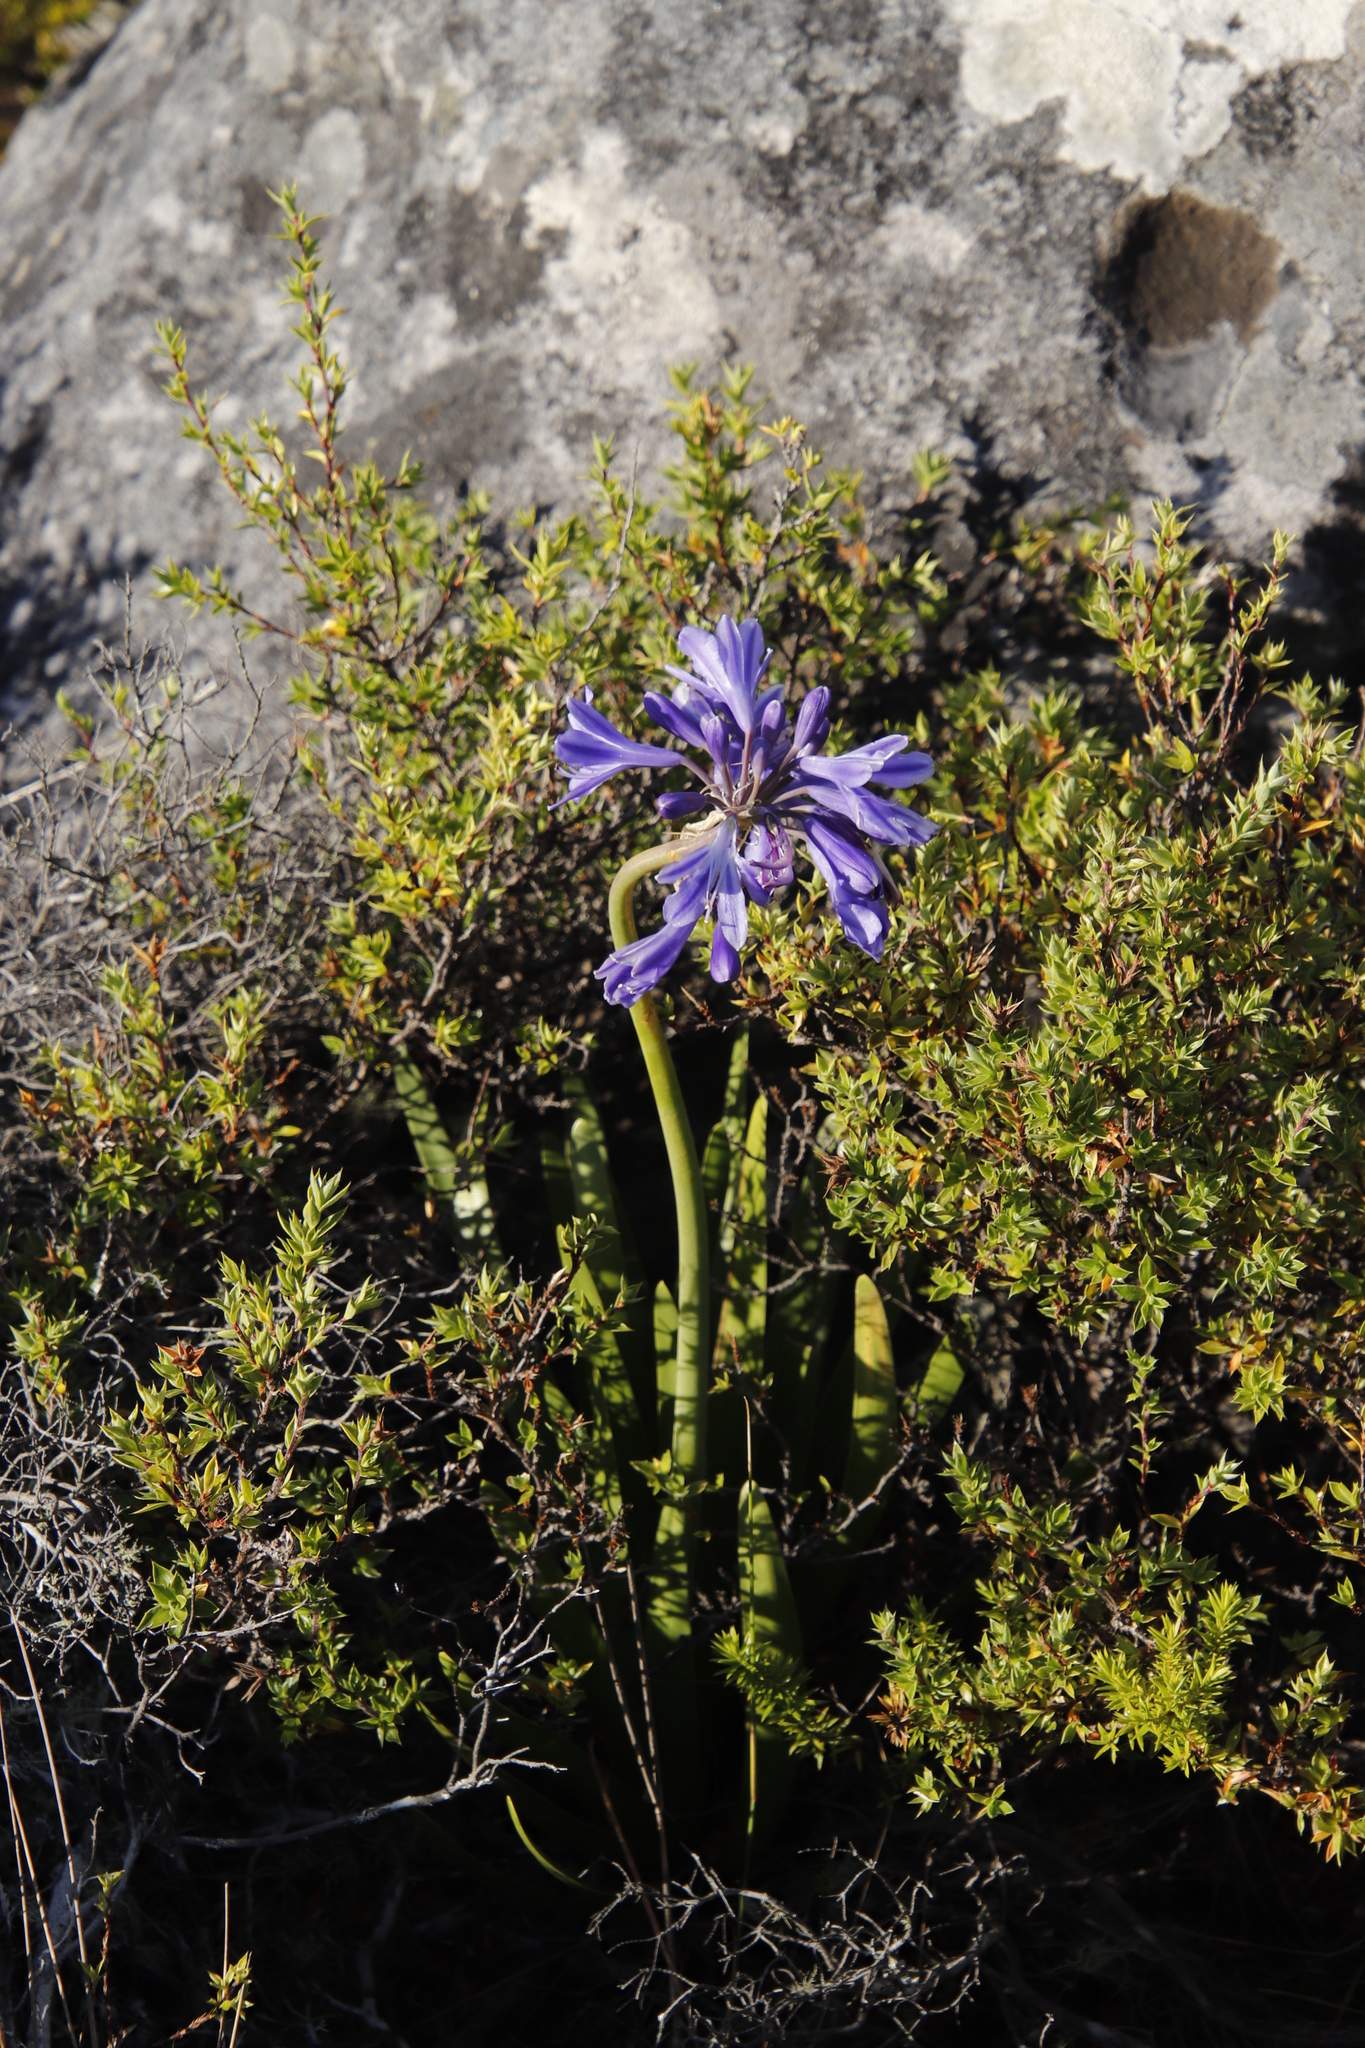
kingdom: Plantae
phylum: Tracheophyta
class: Liliopsida
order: Asparagales
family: Amaryllidaceae
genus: Agapanthus
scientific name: Agapanthus
